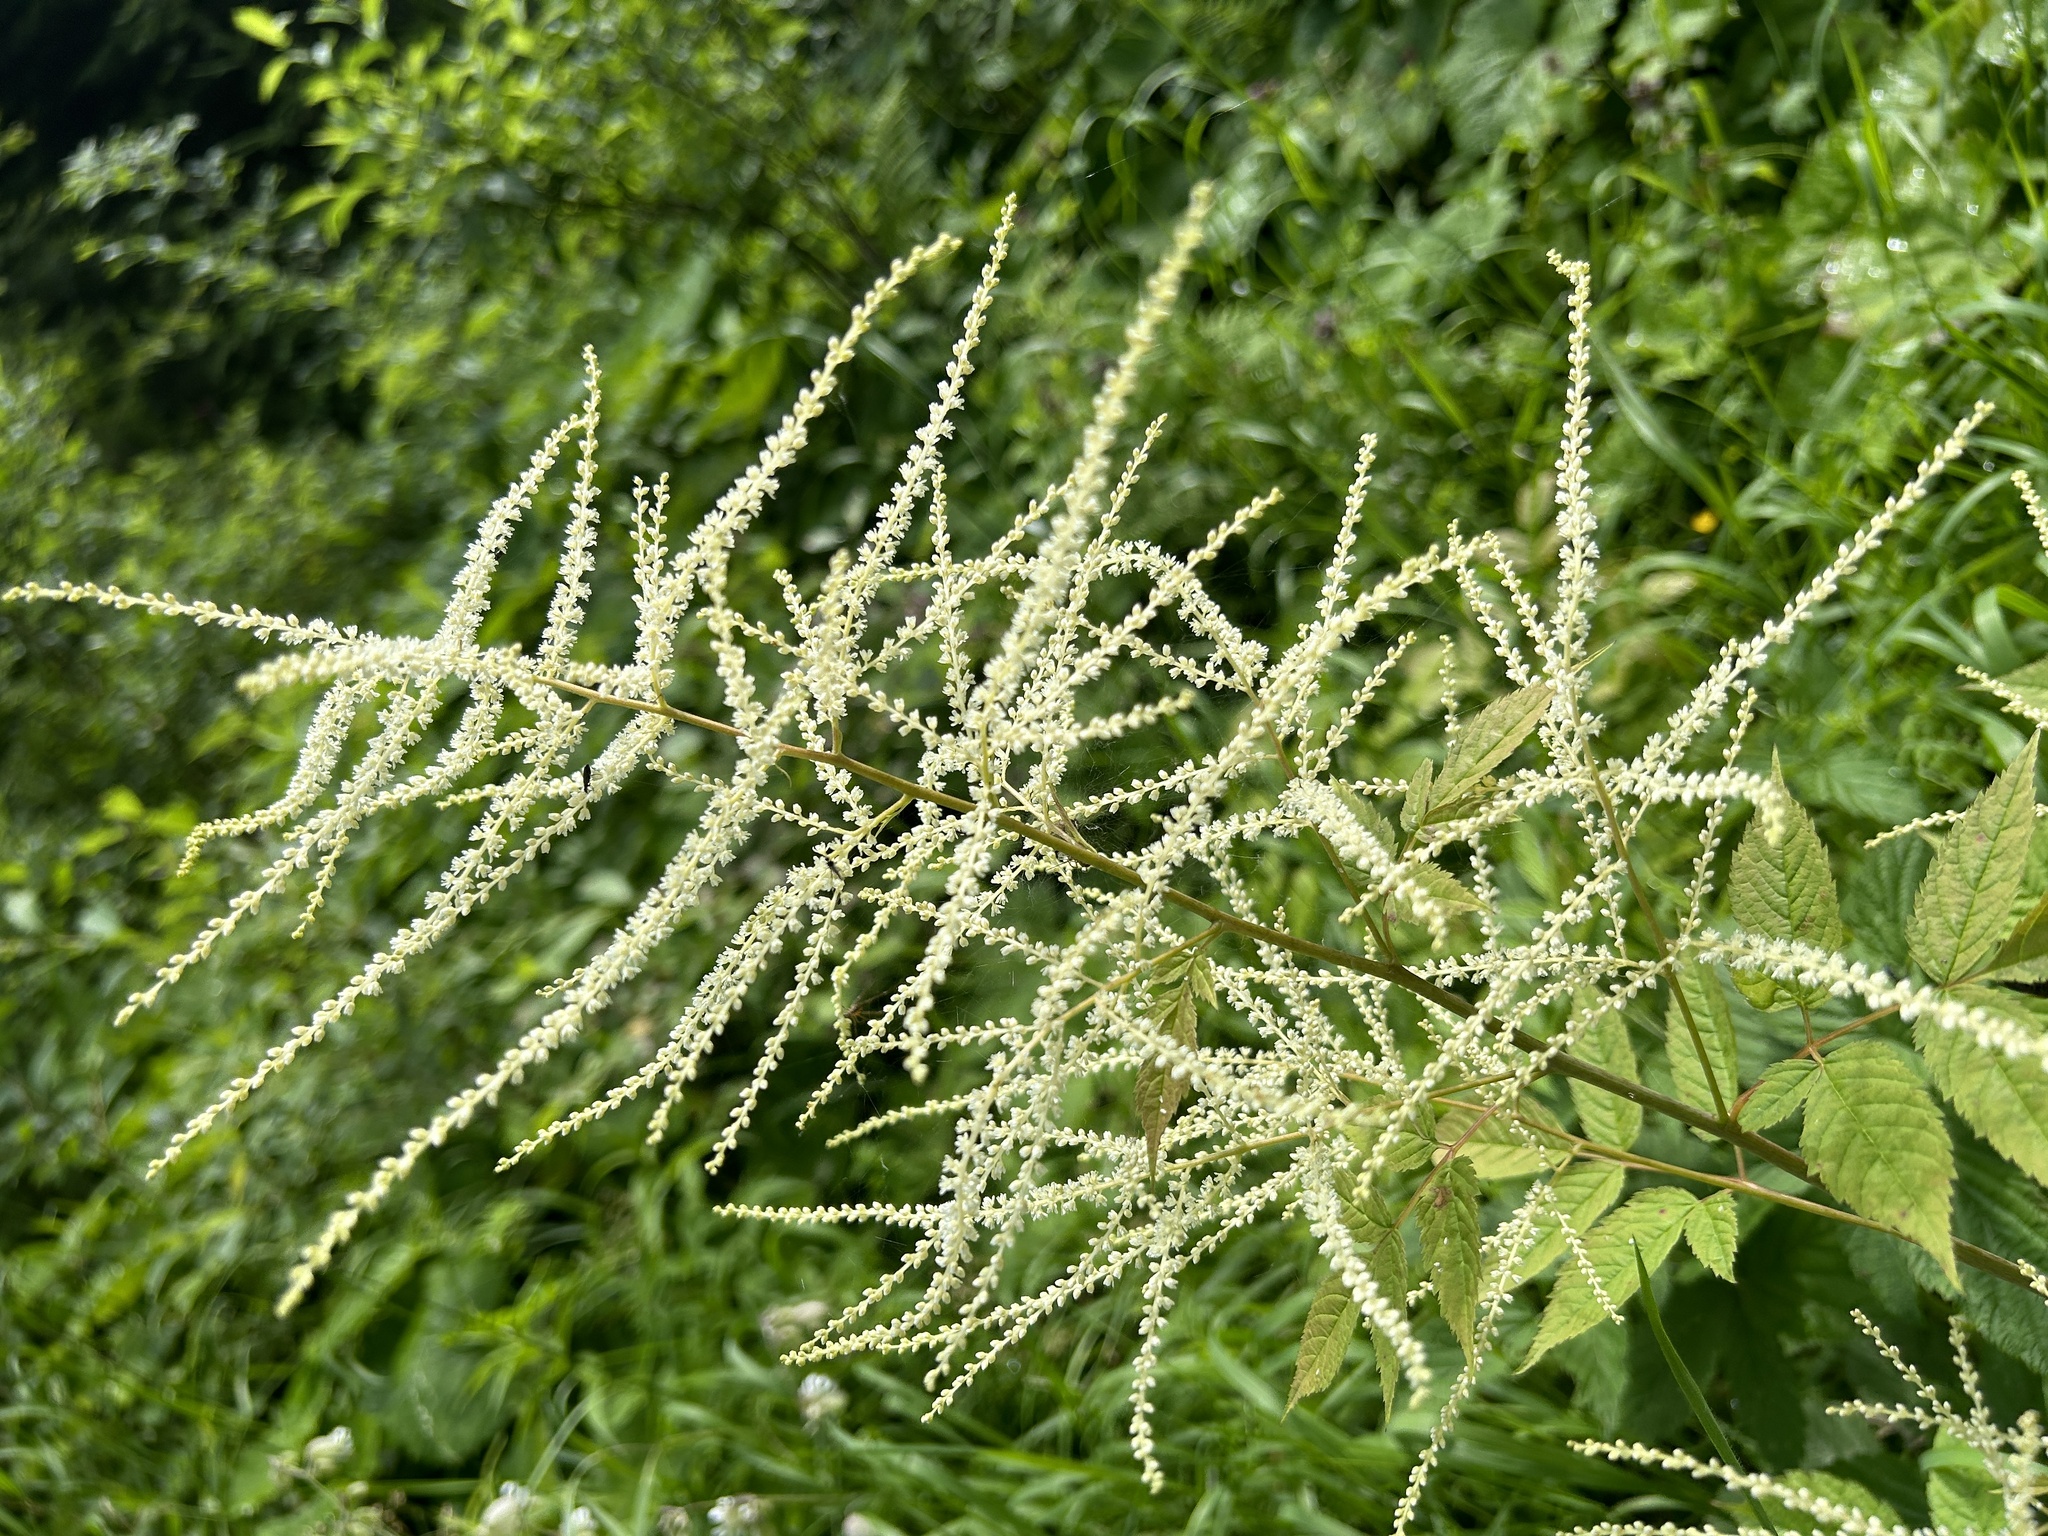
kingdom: Plantae
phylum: Tracheophyta
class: Magnoliopsida
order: Rosales
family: Rosaceae
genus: Aruncus
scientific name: Aruncus dioicus
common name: Buck's-beard
